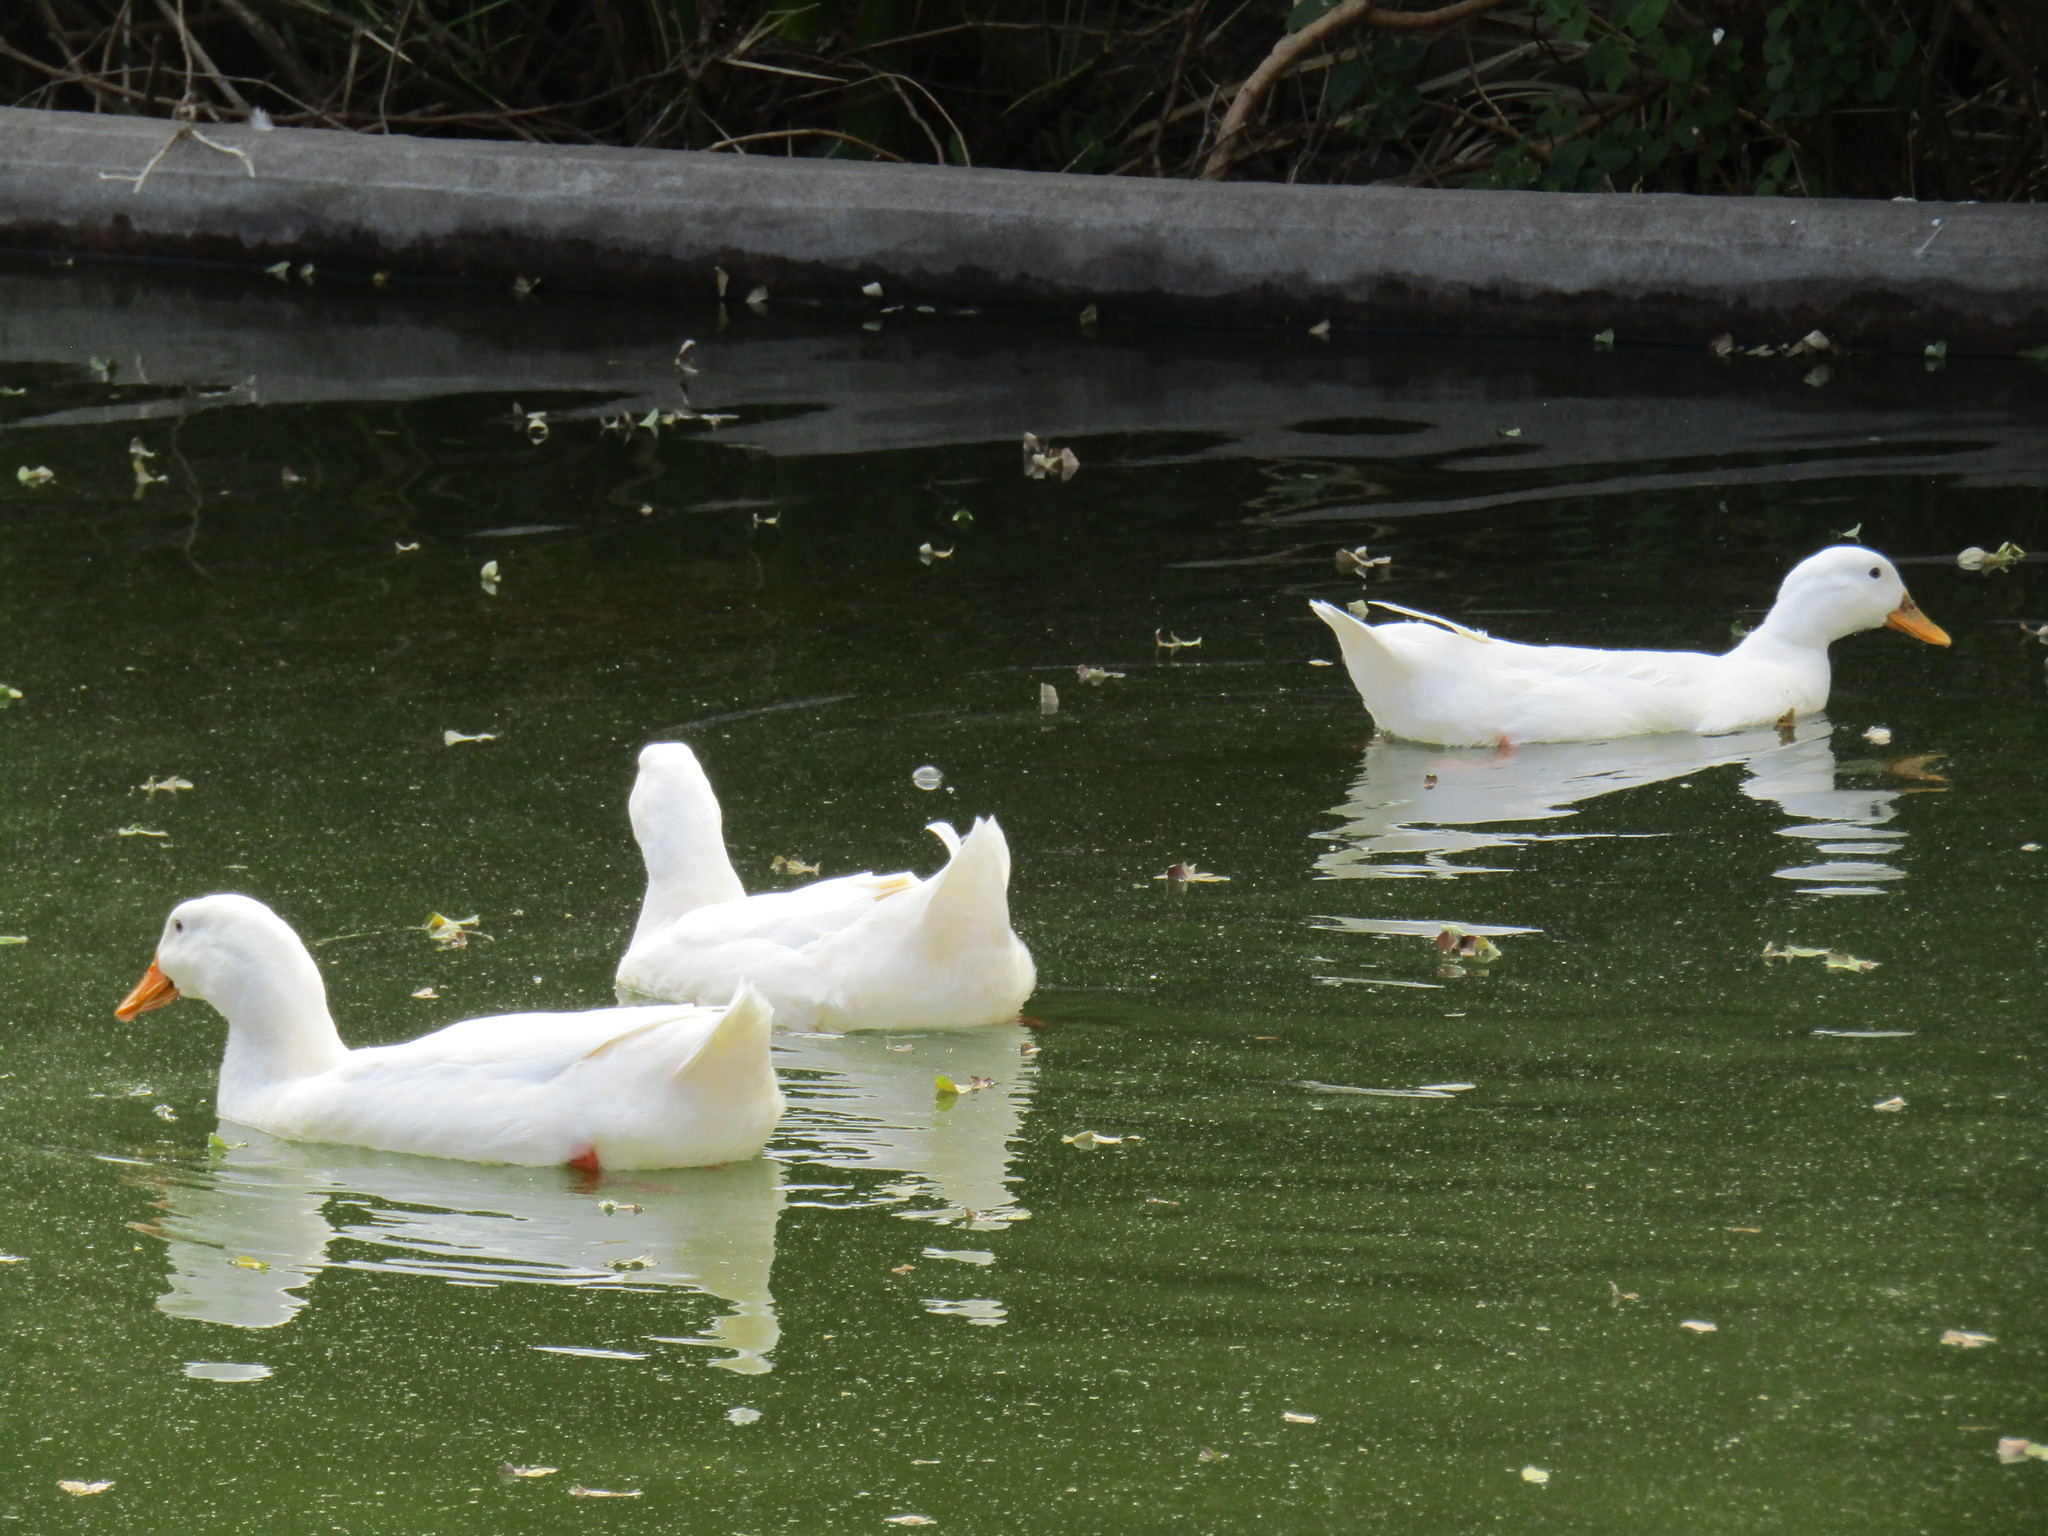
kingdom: Animalia
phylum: Chordata
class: Aves
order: Anseriformes
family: Anatidae
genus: Anas
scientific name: Anas platyrhynchos
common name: Mallard
